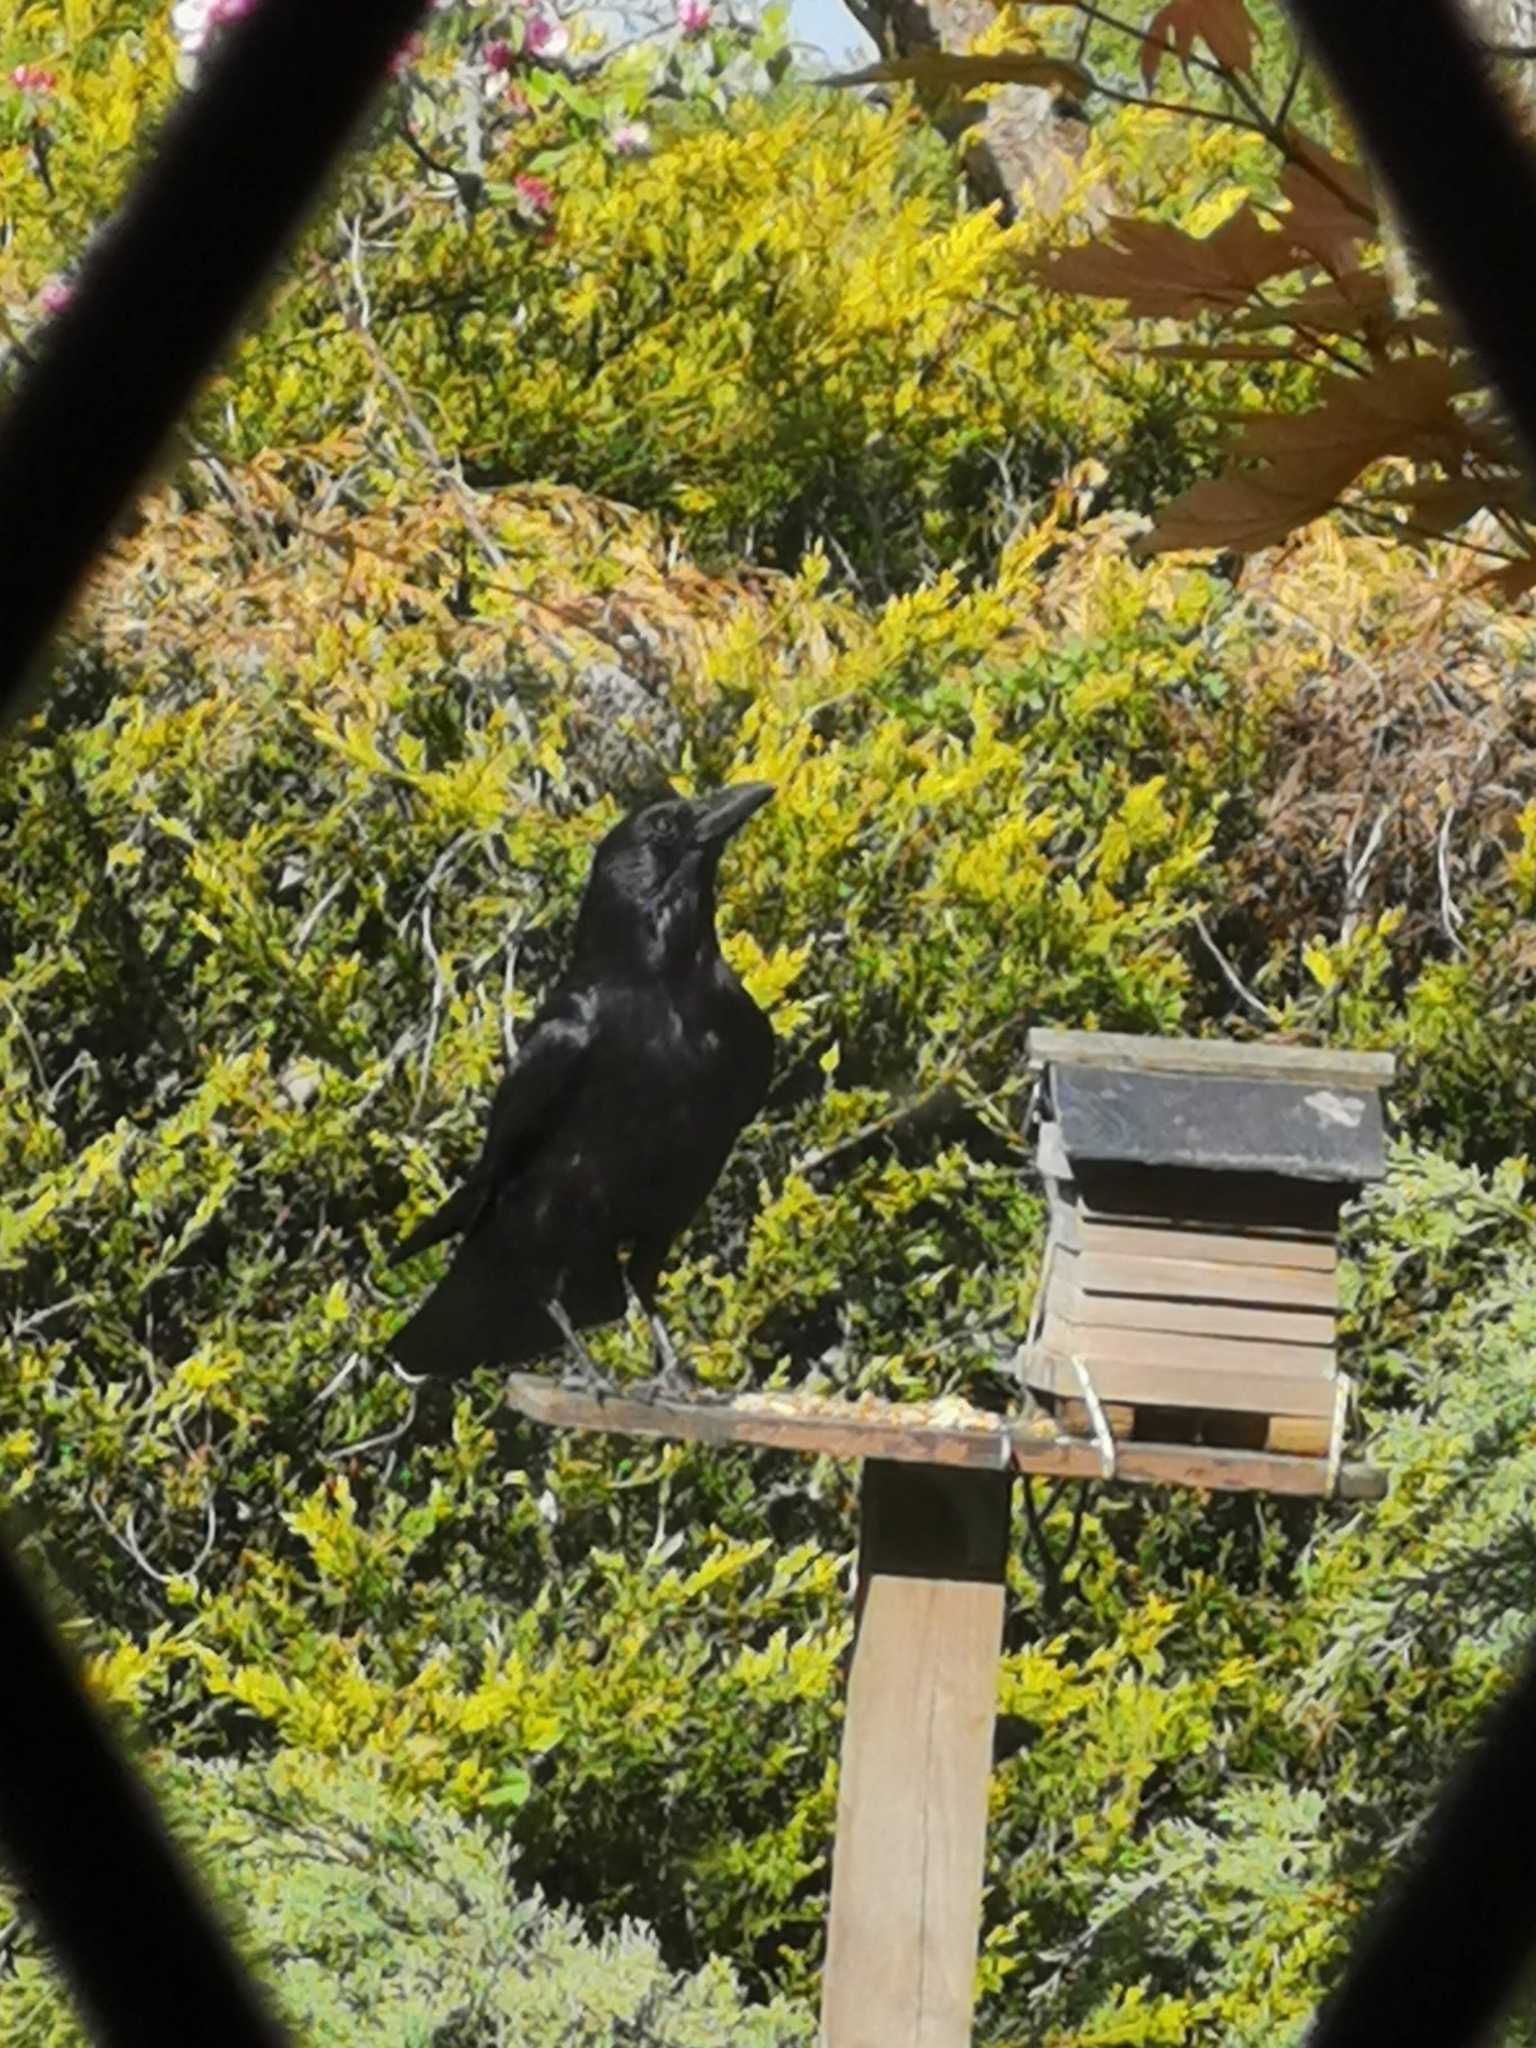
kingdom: Animalia
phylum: Chordata
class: Aves
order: Passeriformes
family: Corvidae
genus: Corvus
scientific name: Corvus corone
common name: Carrion crow
